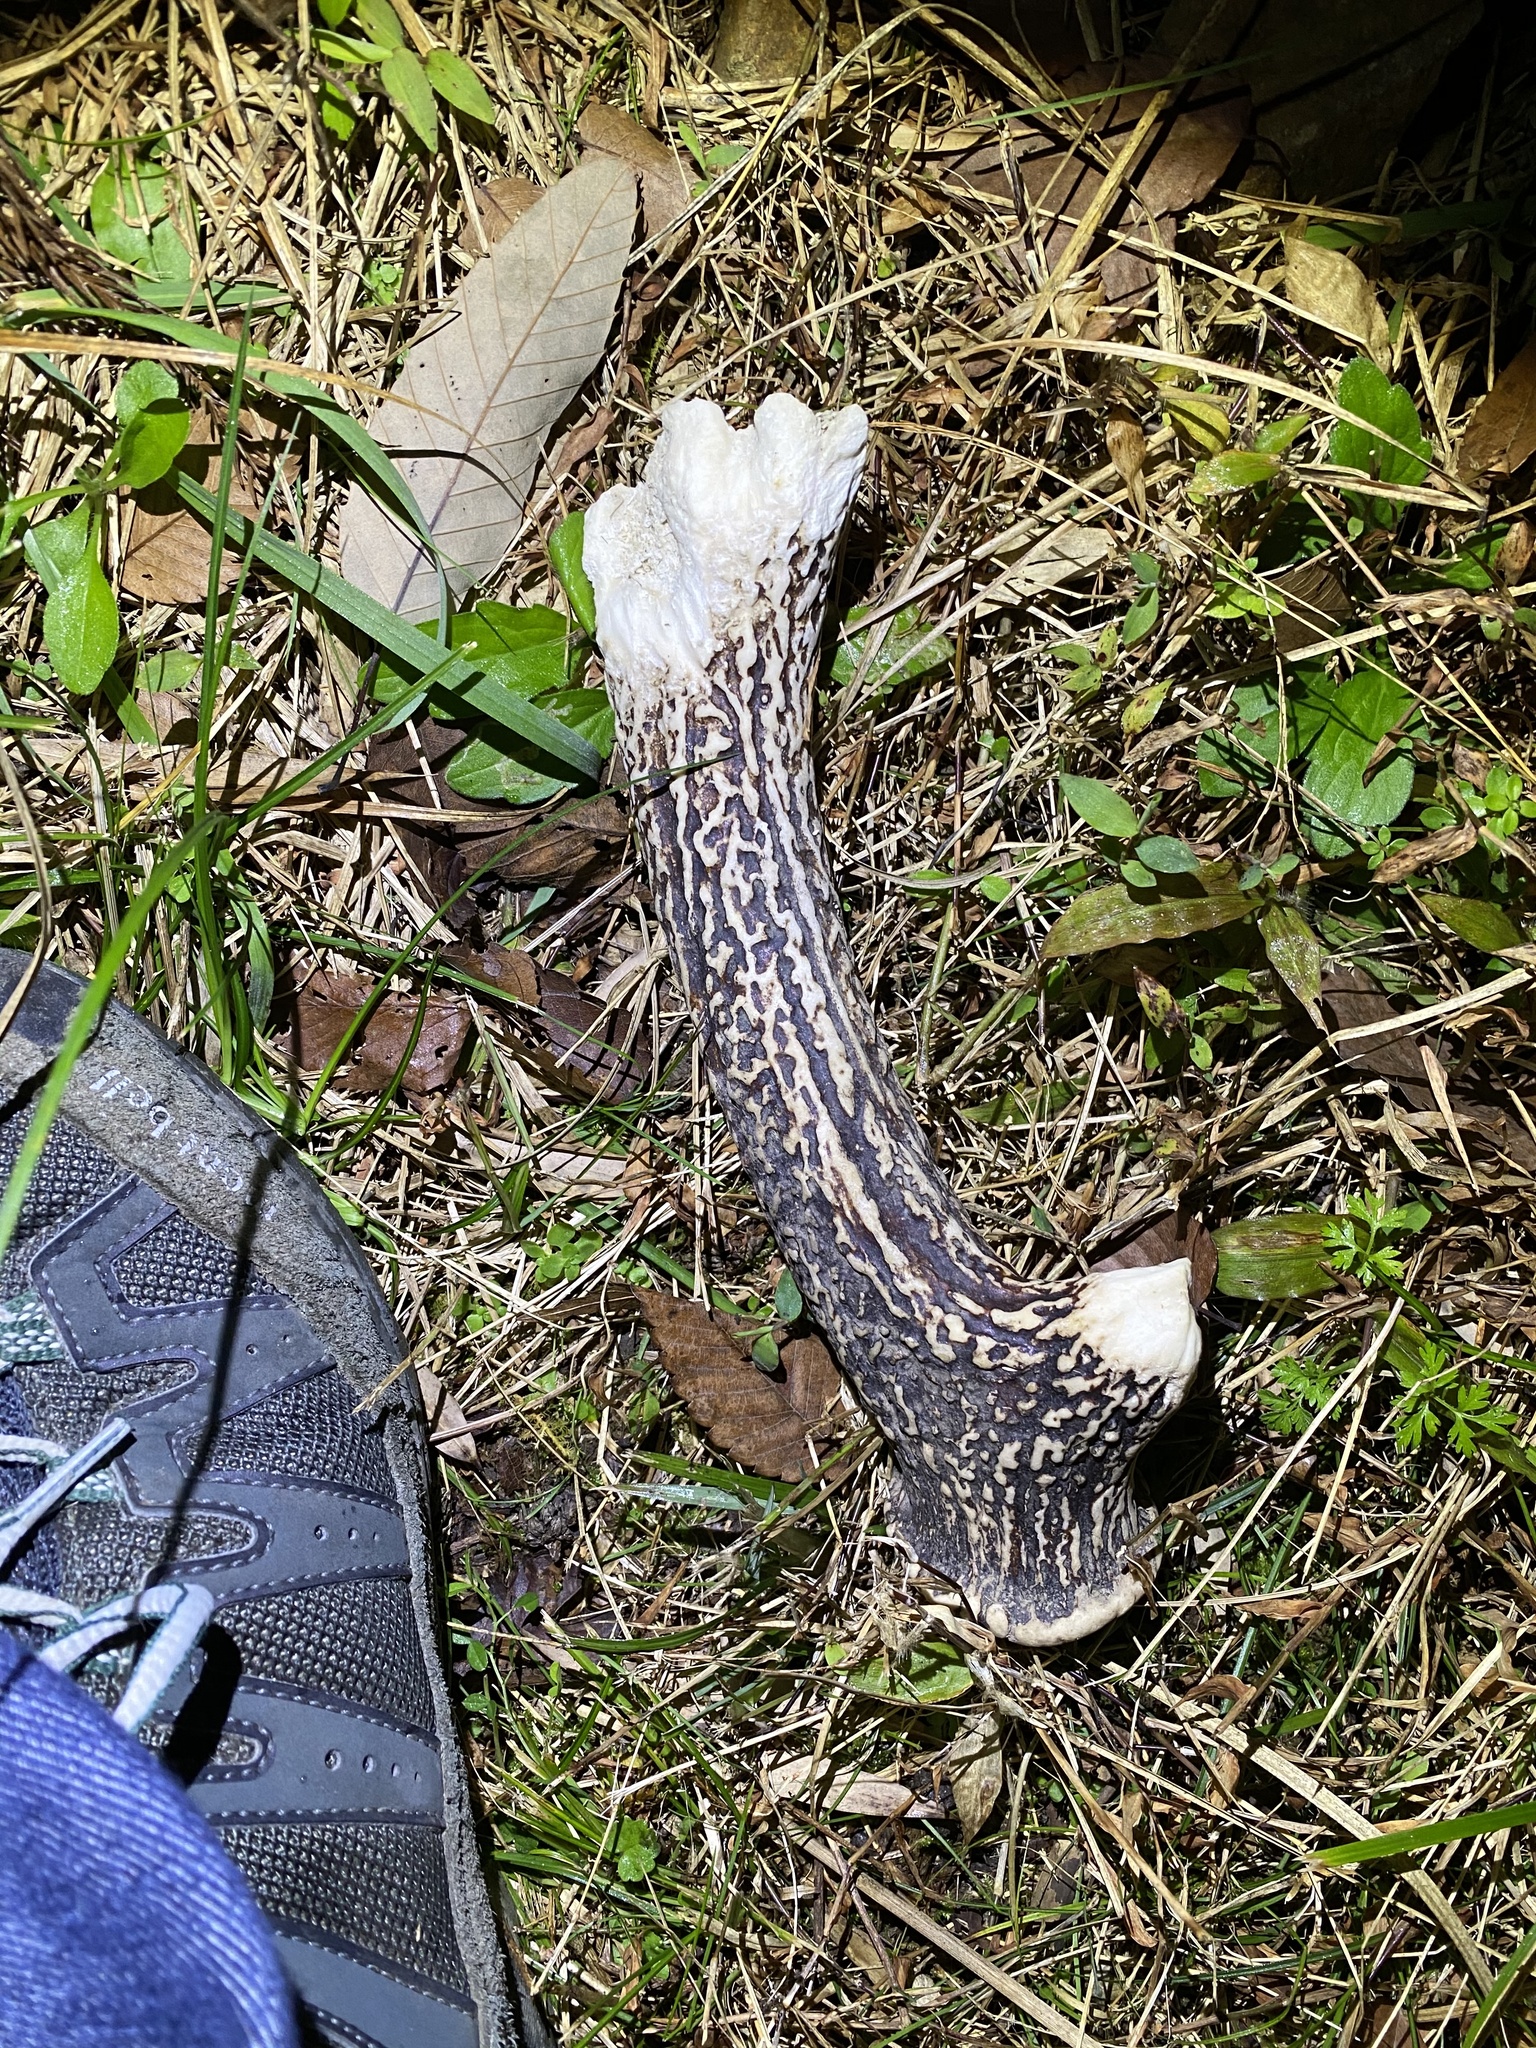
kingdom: Animalia
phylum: Chordata
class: Mammalia
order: Artiodactyla
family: Cervidae
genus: Cervus
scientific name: Cervus nippon
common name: Sika deer
